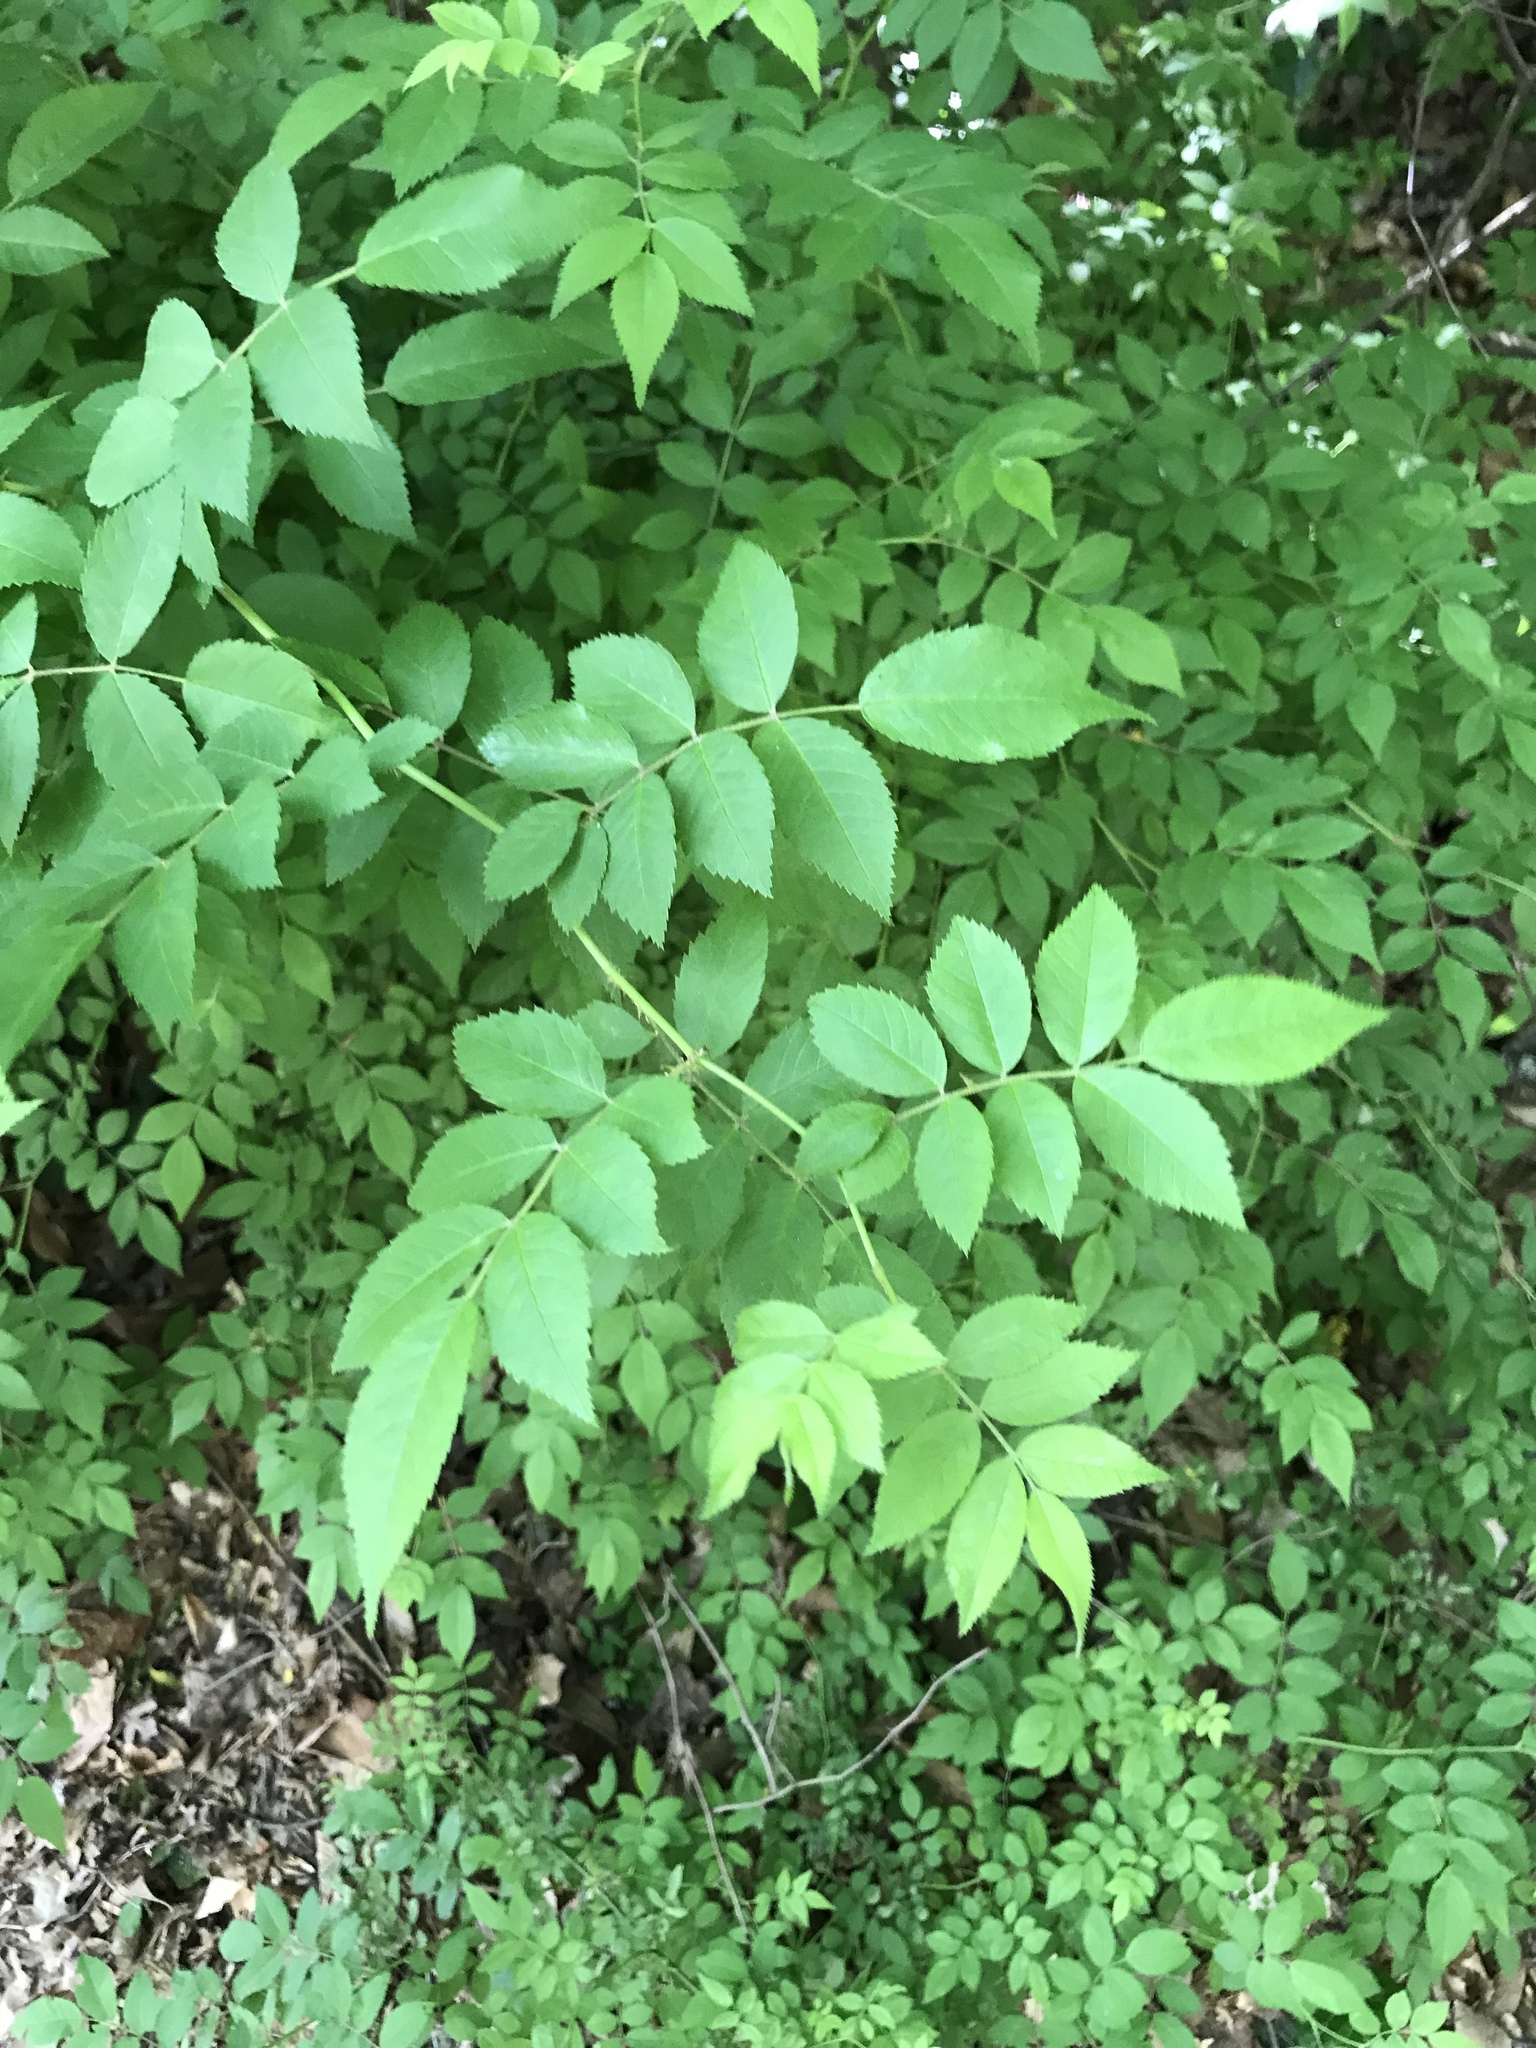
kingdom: Plantae
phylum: Tracheophyta
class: Magnoliopsida
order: Rosales
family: Rosaceae
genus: Rosa
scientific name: Rosa multiflora
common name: Multiflora rose
